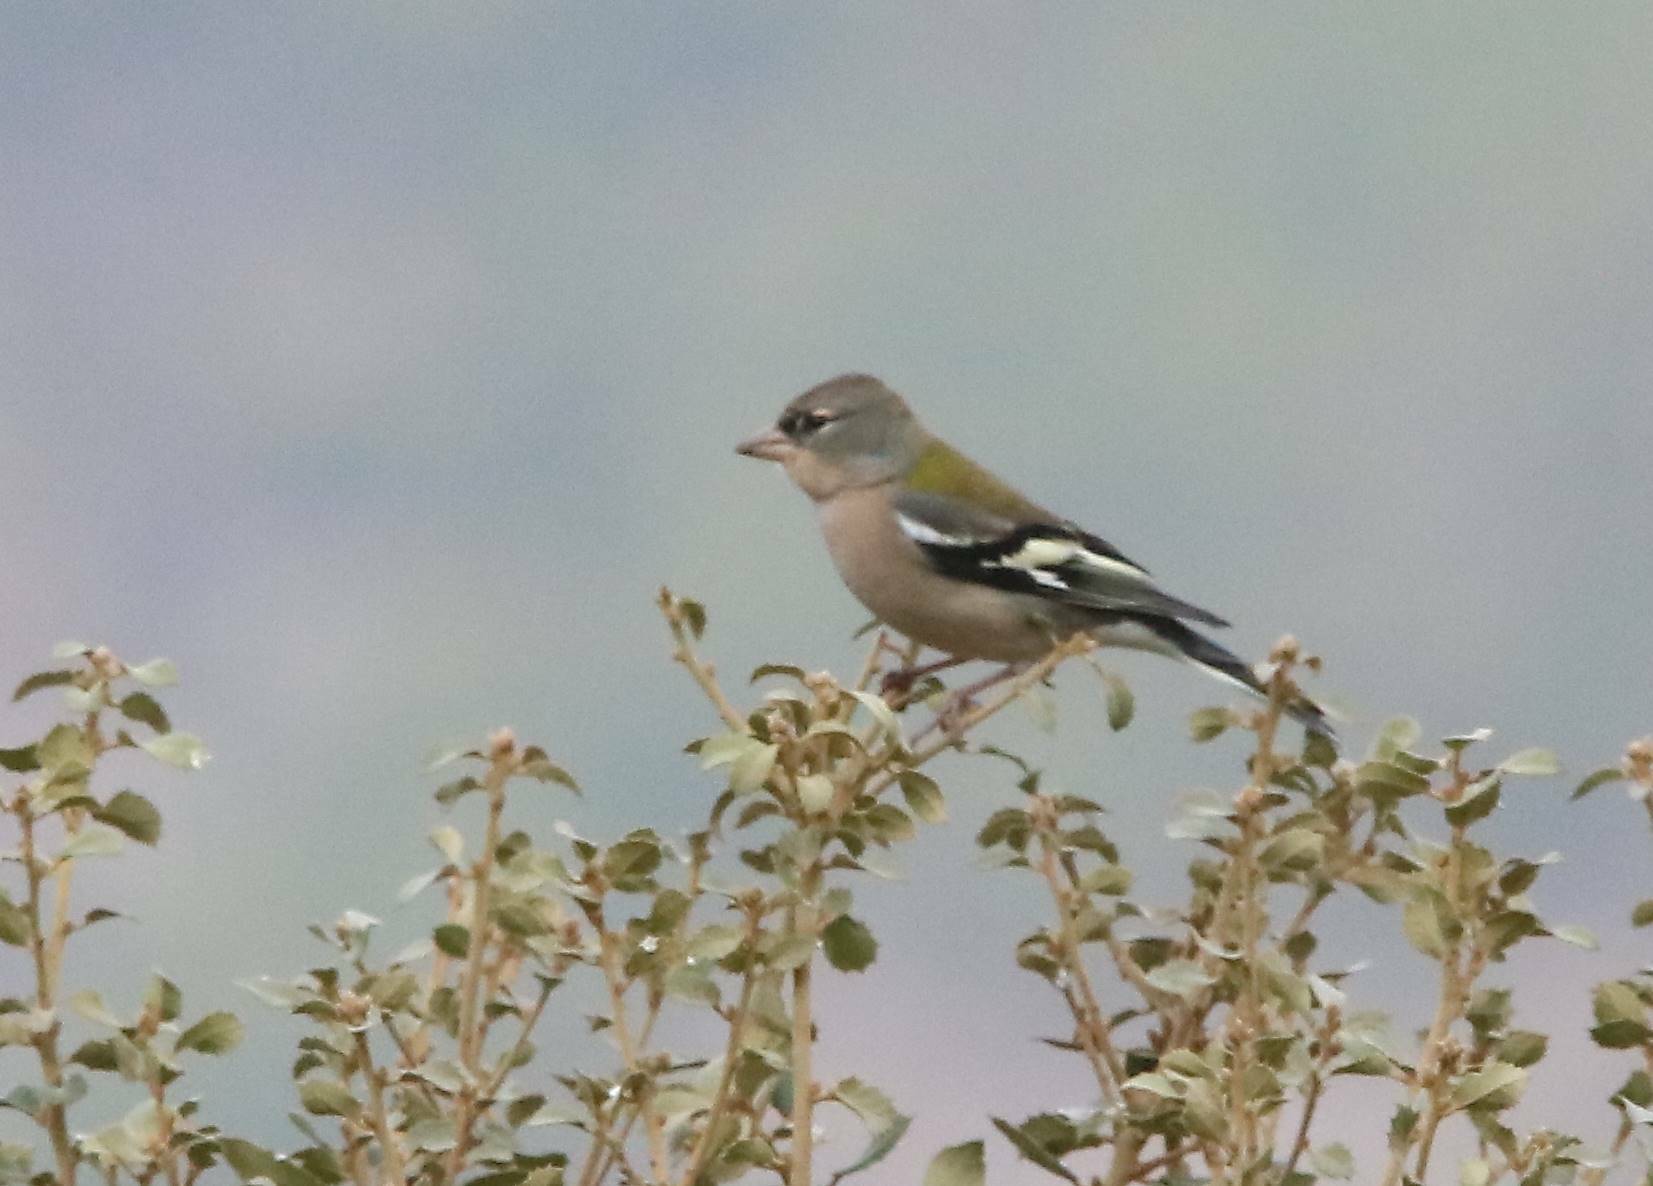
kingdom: Animalia
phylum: Chordata
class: Aves
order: Passeriformes
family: Fringillidae
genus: Fringilla
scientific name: Fringilla spodiogenys
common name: African chaffinch
